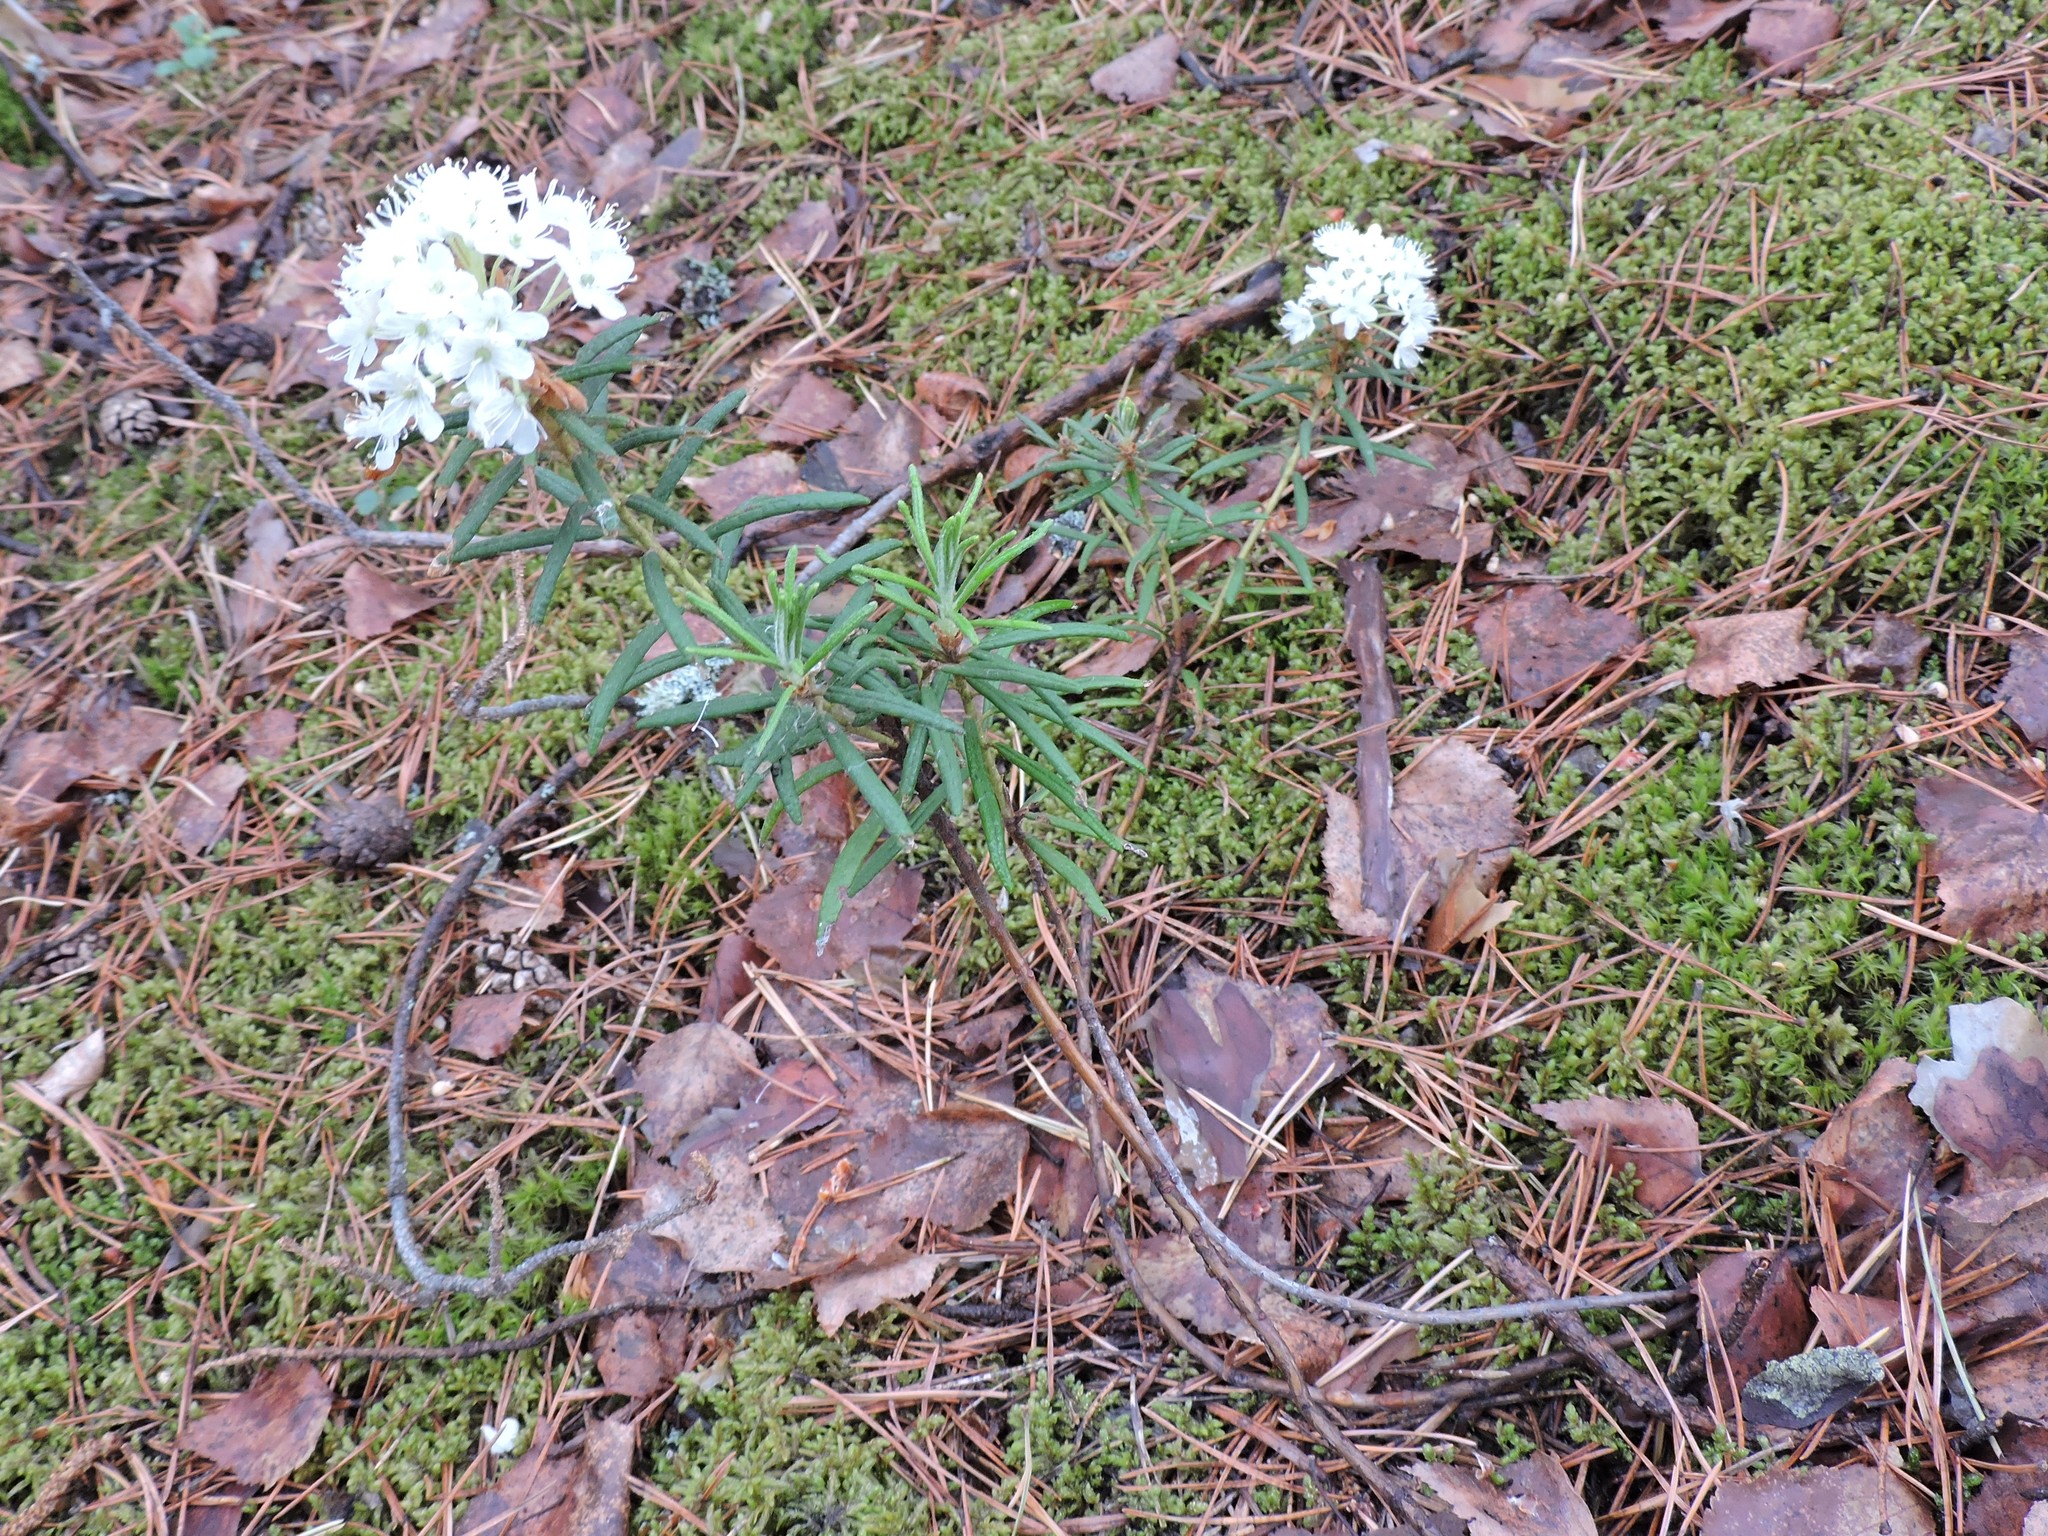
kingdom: Plantae
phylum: Tracheophyta
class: Magnoliopsida
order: Ericales
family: Ericaceae
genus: Rhododendron
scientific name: Rhododendron tomentosum
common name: Marsh labrador tea
